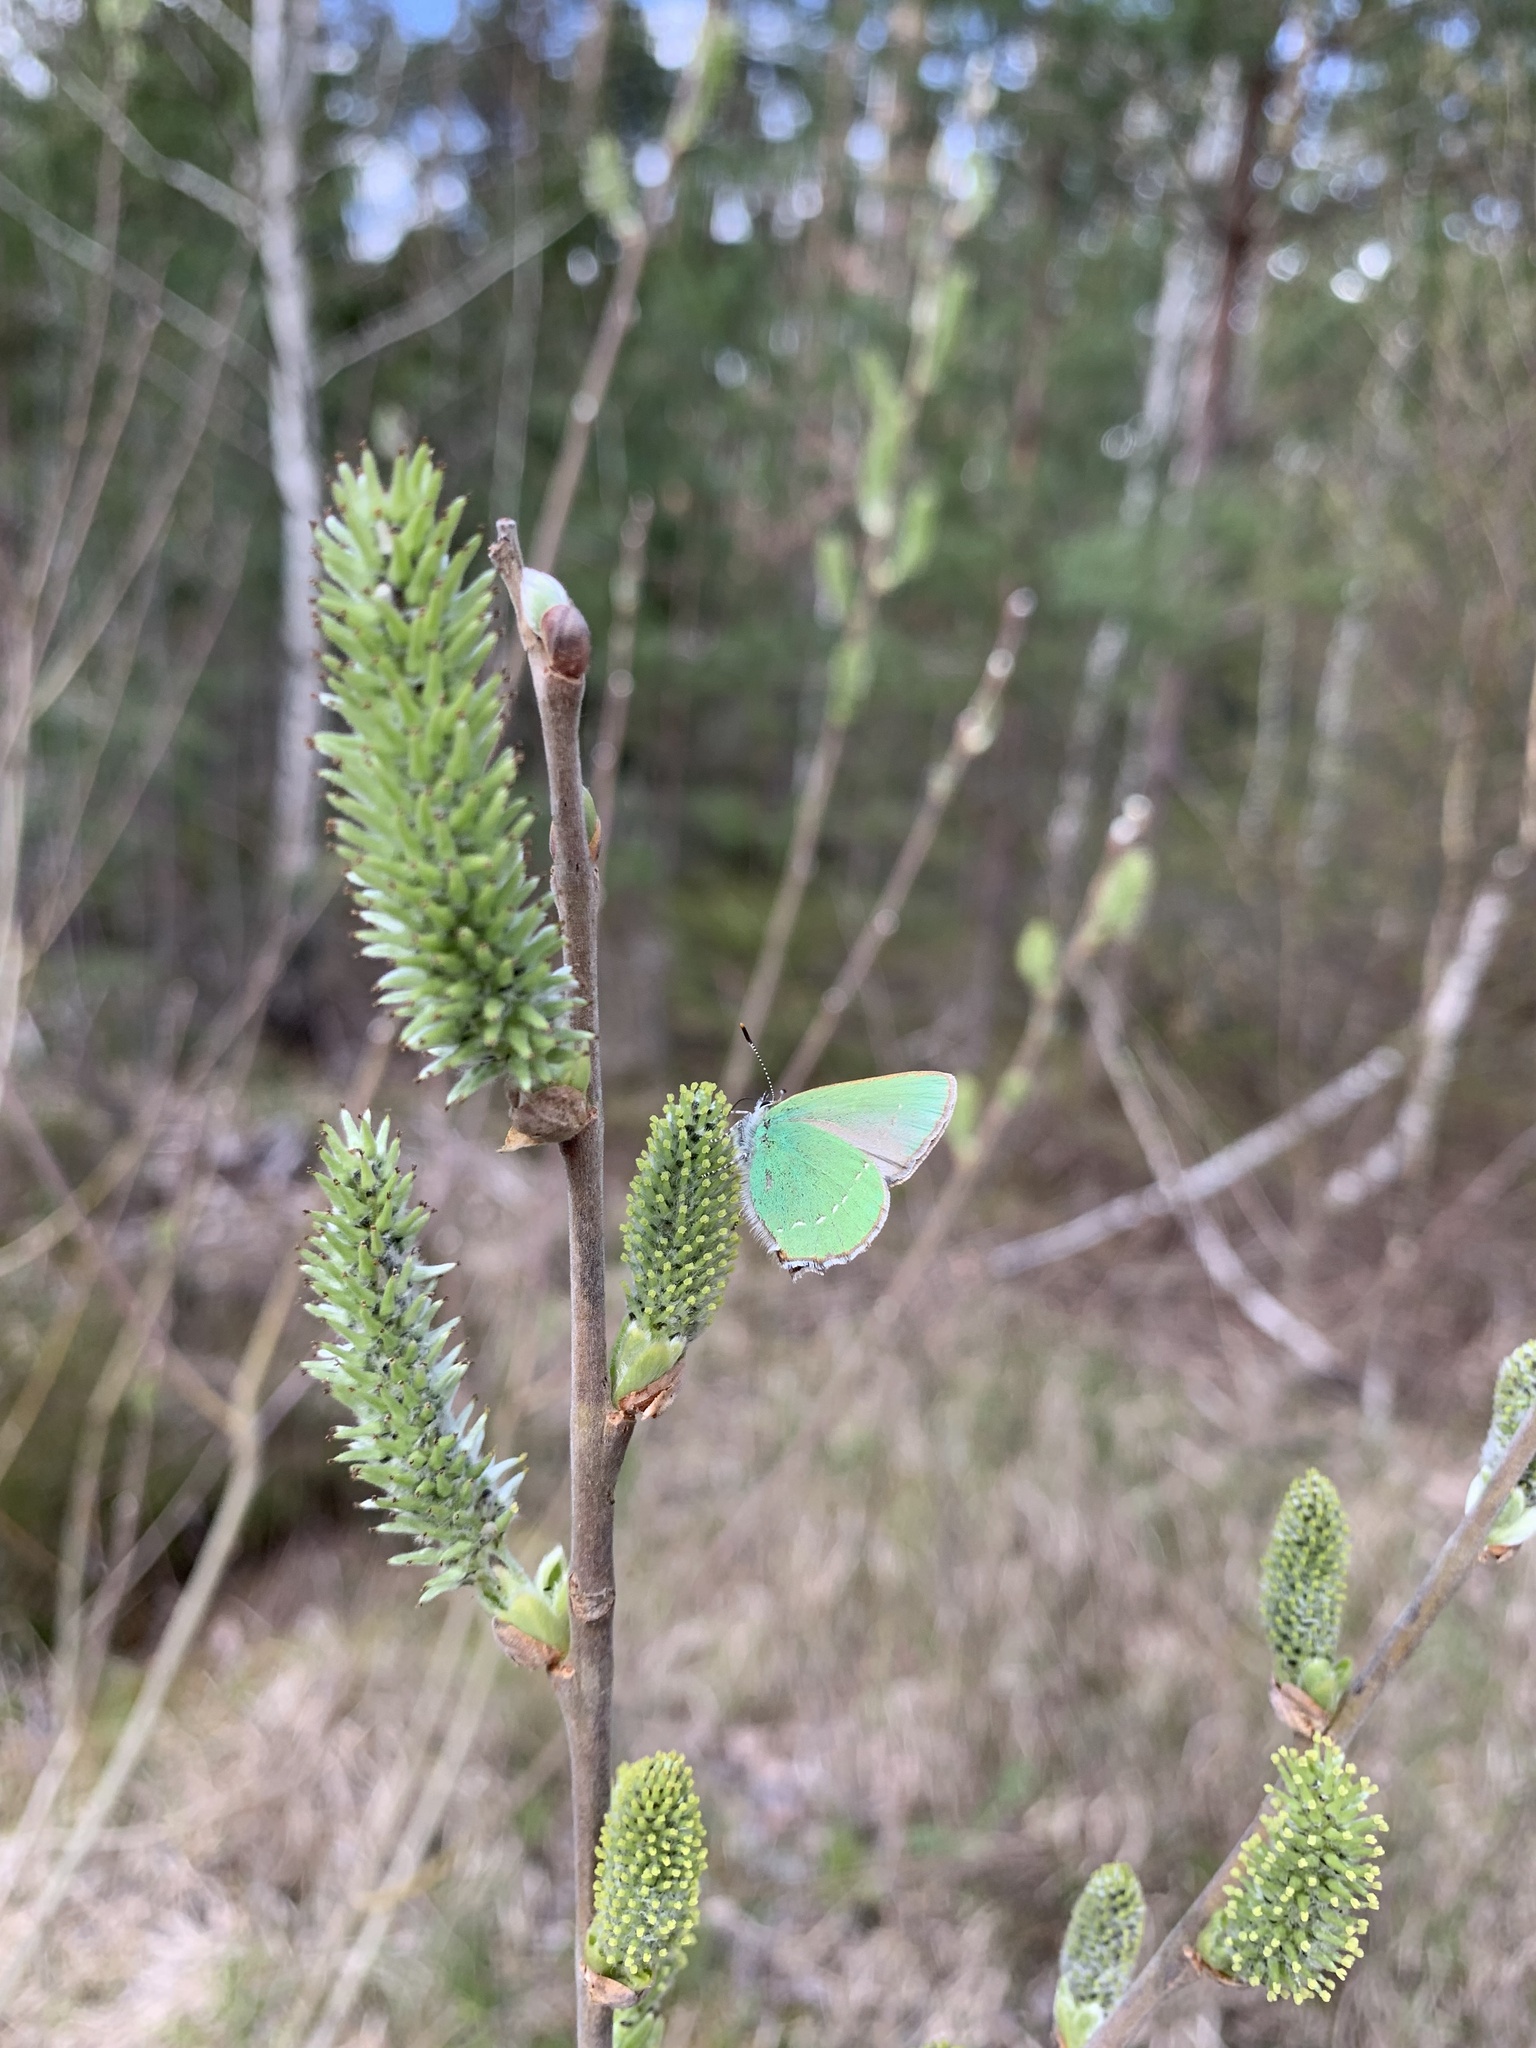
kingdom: Animalia
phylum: Arthropoda
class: Insecta
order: Lepidoptera
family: Lycaenidae
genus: Callophrys
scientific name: Callophrys rubi
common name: Green hairstreak
